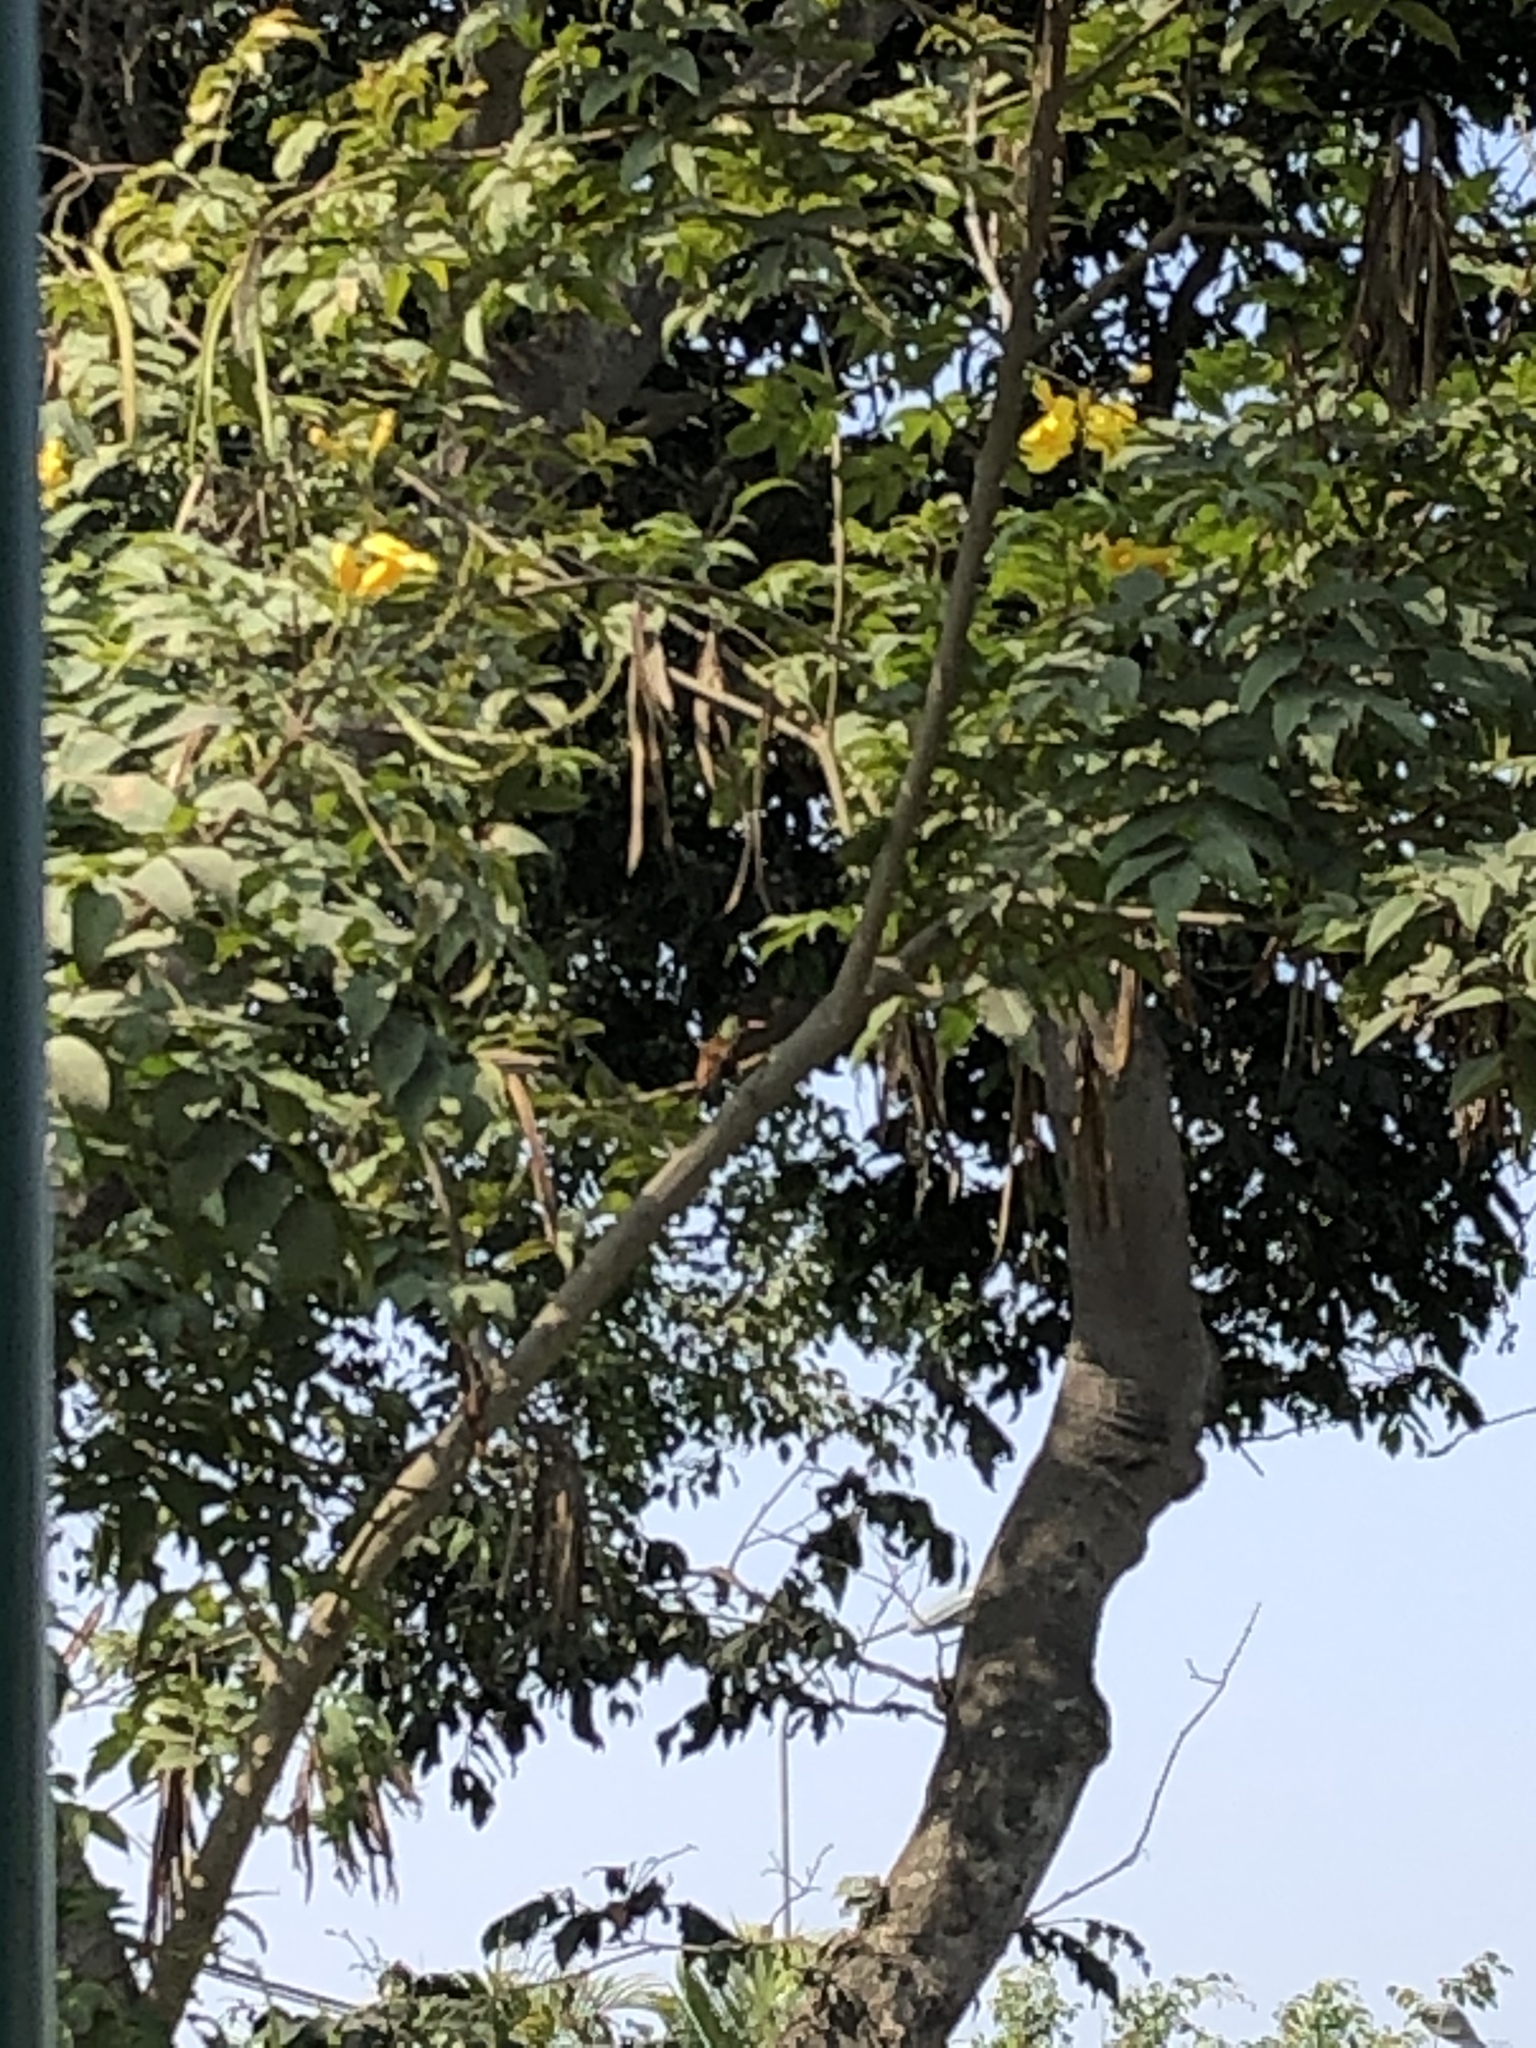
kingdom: Animalia
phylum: Chordata
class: Aves
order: Apodiformes
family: Trochilidae
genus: Amazilis
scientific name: Amazilis amazilia
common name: Amazilia hummingbird
